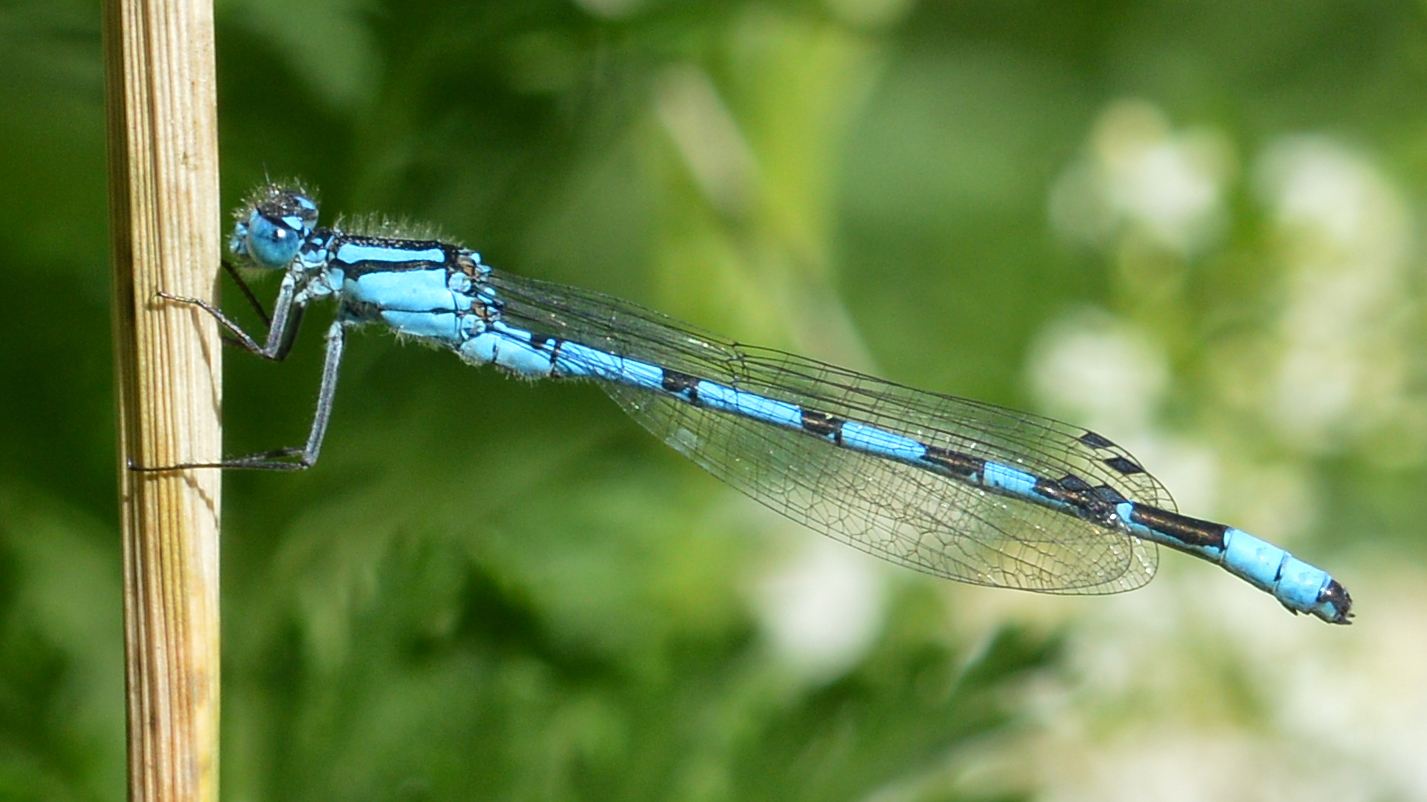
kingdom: Animalia
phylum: Arthropoda
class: Insecta
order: Odonata
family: Coenagrionidae
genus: Enallagma
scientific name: Enallagma cyathigerum
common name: Common blue damselfly
